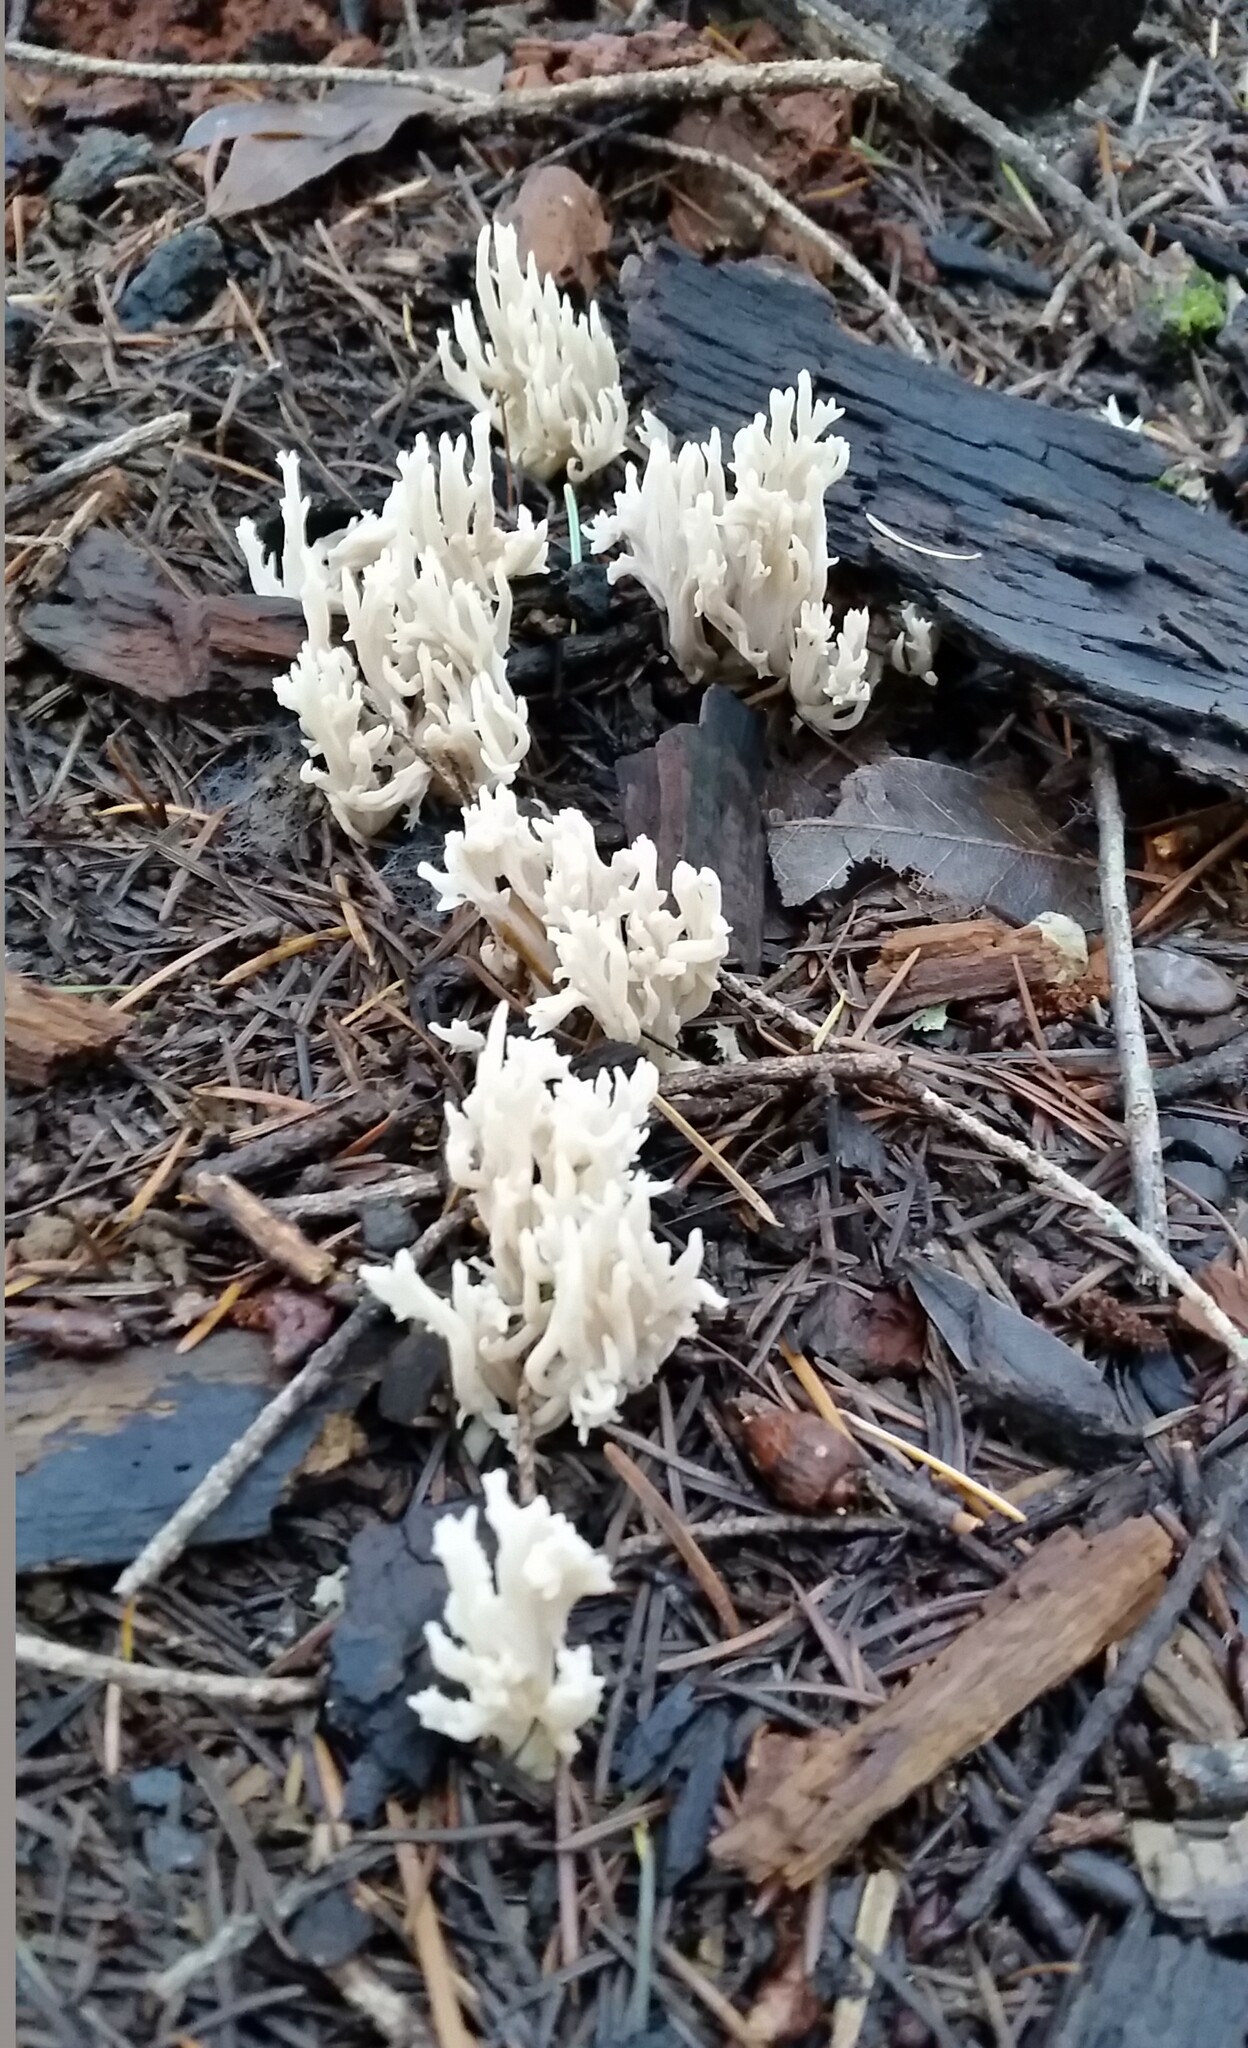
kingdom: Fungi
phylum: Basidiomycota
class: Agaricomycetes
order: Cantharellales
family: Hydnaceae
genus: Clavulina
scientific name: Clavulina coralloides
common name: Crested coral
